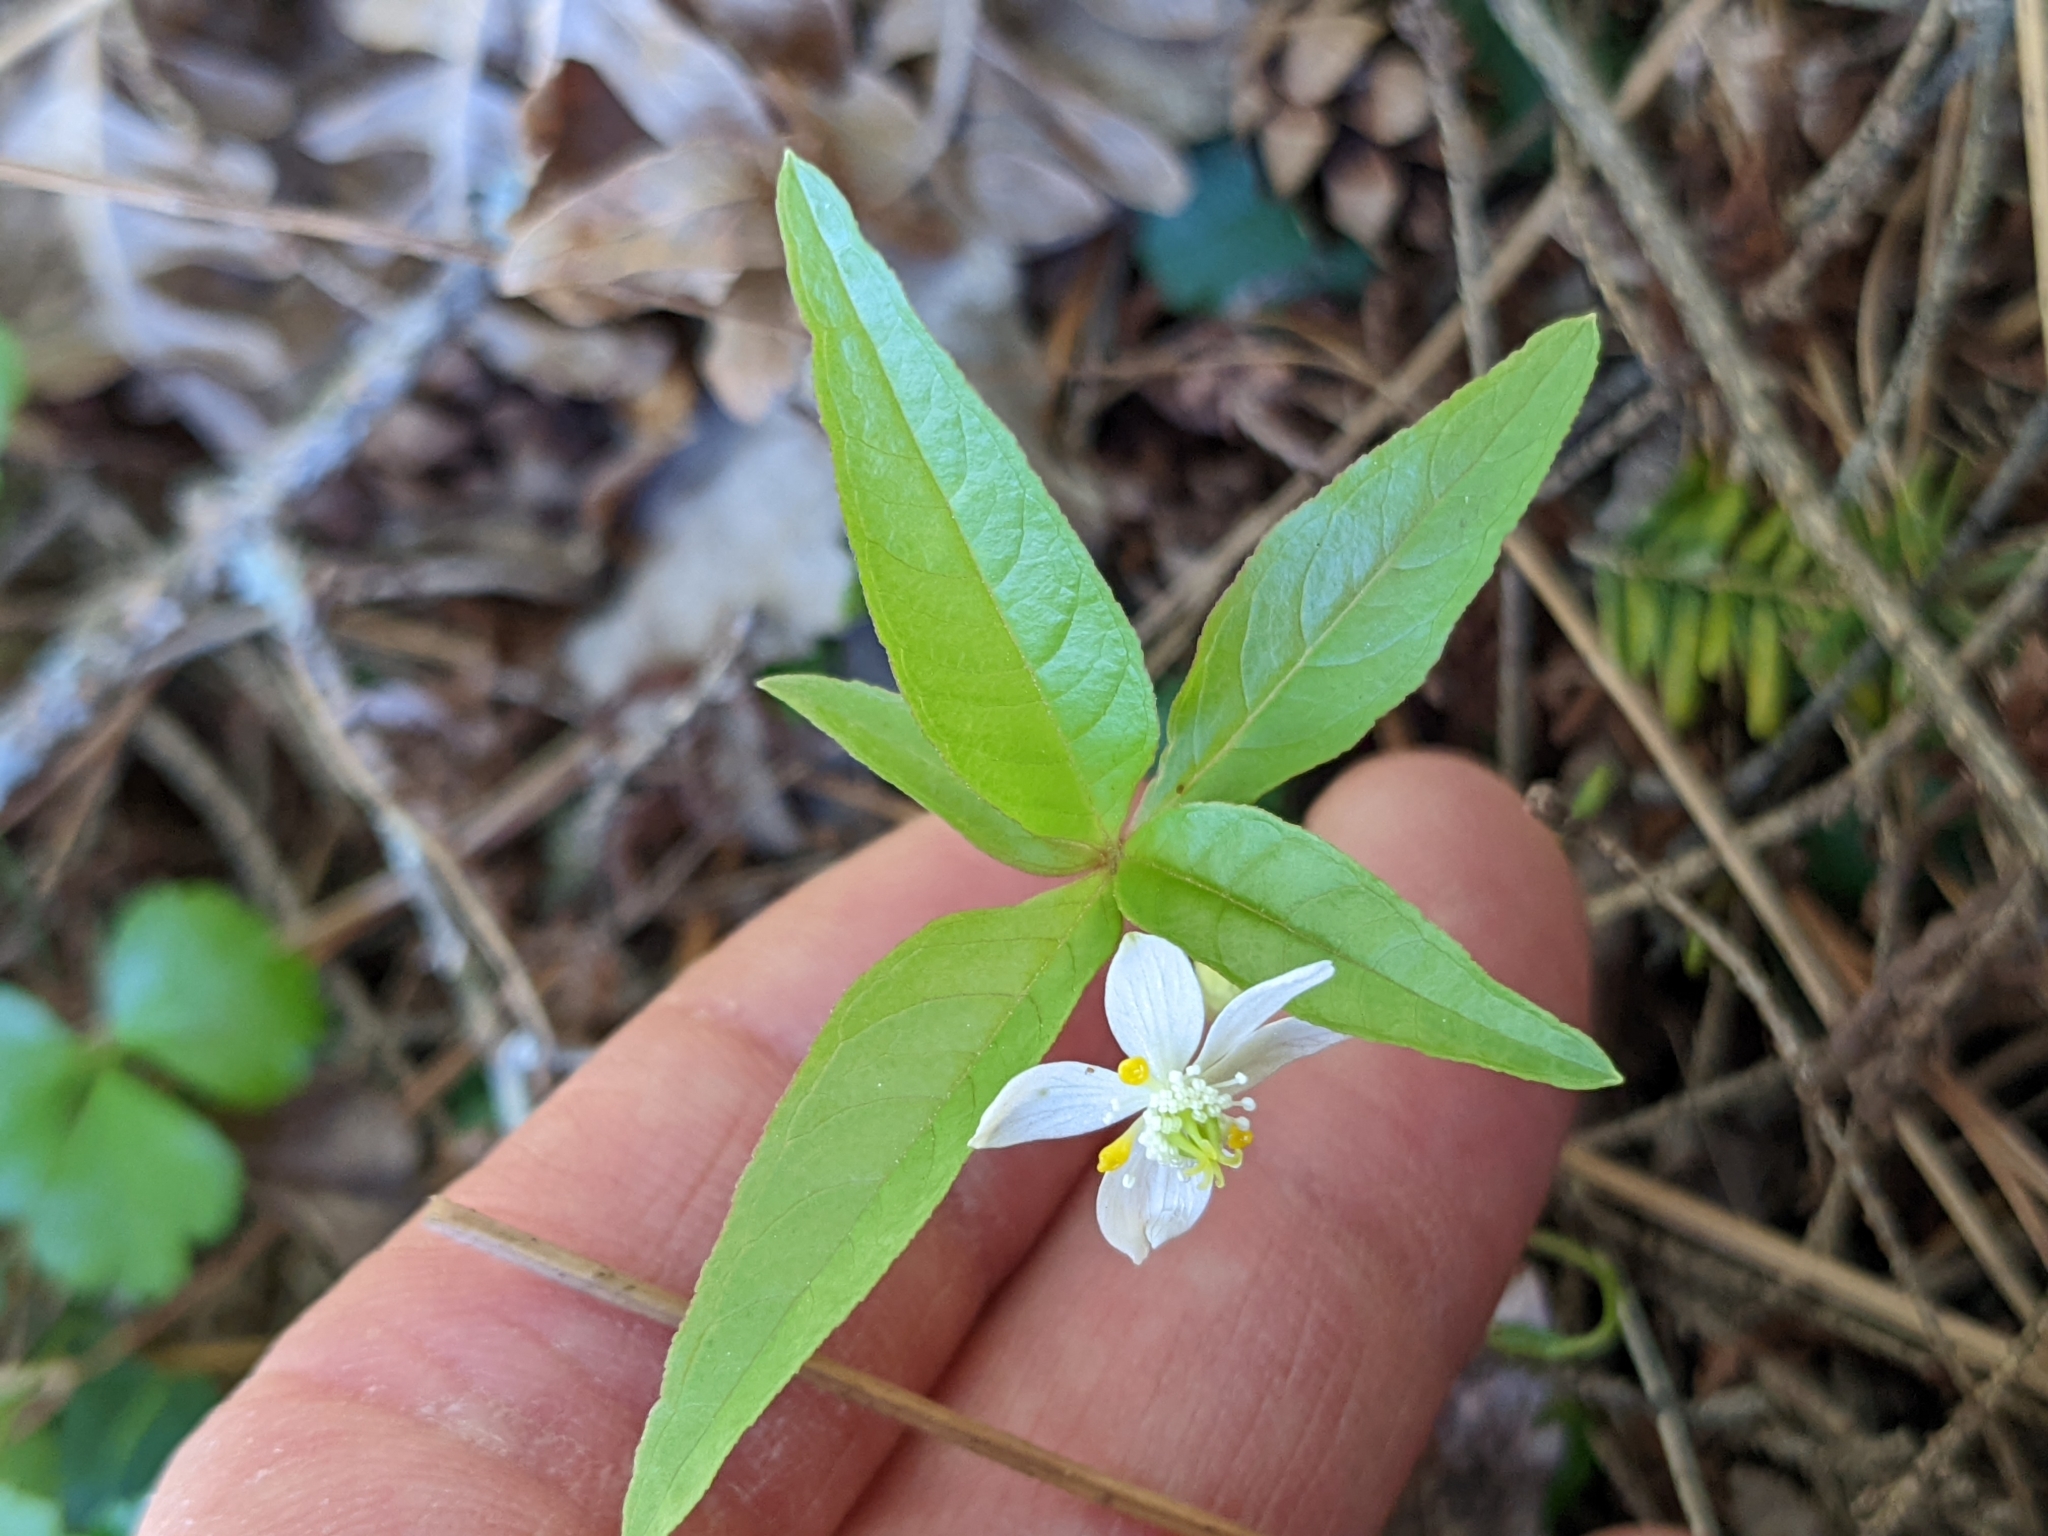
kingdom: Plantae
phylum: Tracheophyta
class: Magnoliopsida
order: Ericales
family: Primulaceae
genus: Lysimachia
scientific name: Lysimachia borealis
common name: American starflower
